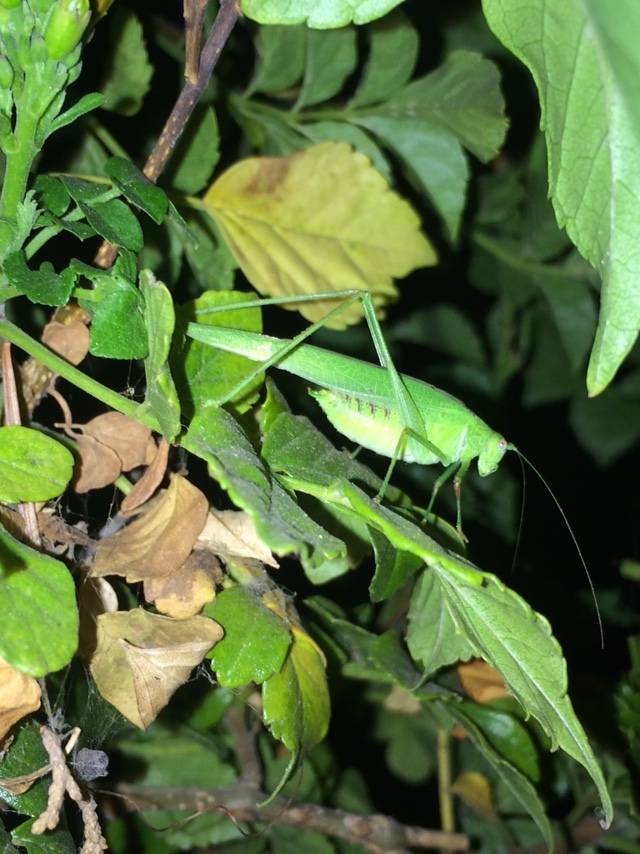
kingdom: Animalia
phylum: Arthropoda
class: Insecta
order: Orthoptera
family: Tettigoniidae
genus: Phaneroptera
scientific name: Phaneroptera nana
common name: Southern sickle bush-cricket
